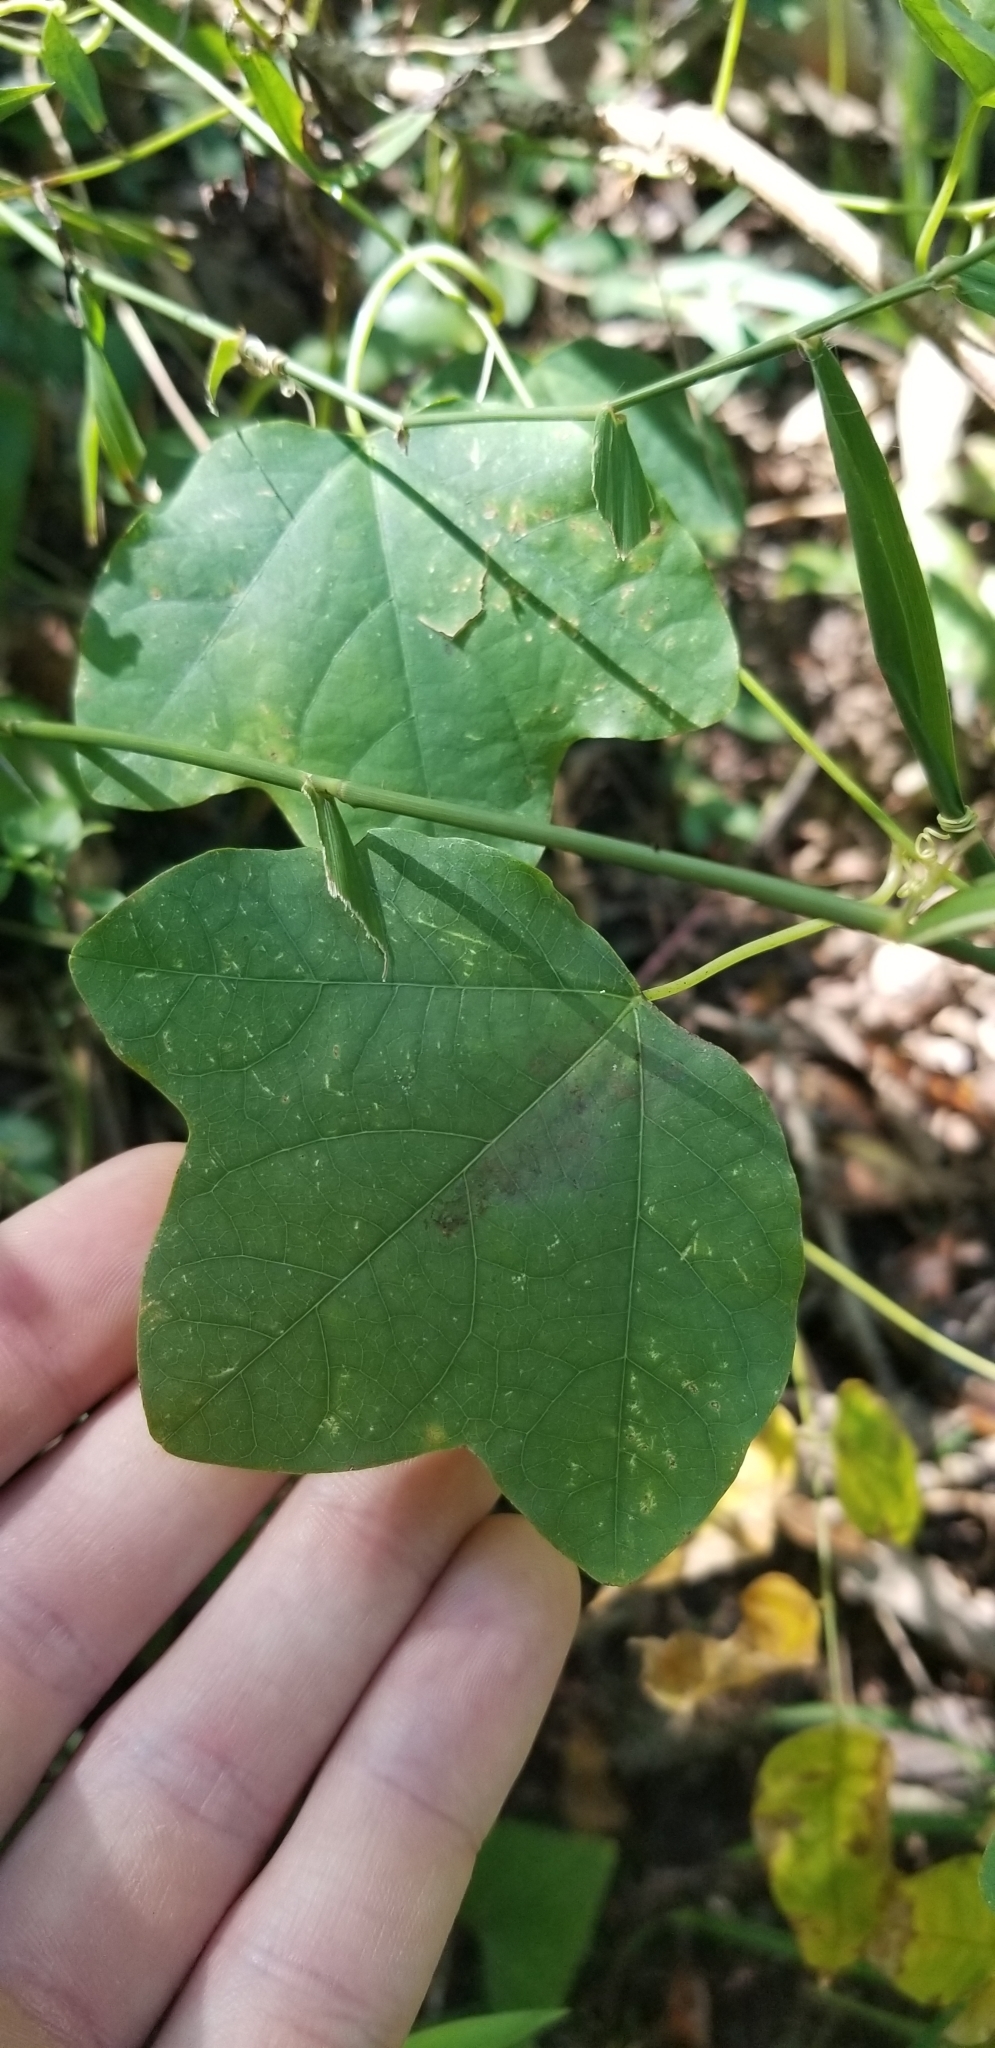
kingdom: Plantae
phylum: Tracheophyta
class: Magnoliopsida
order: Malpighiales
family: Passifloraceae
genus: Passiflora
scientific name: Passiflora lutea
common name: Yellow passionflower
